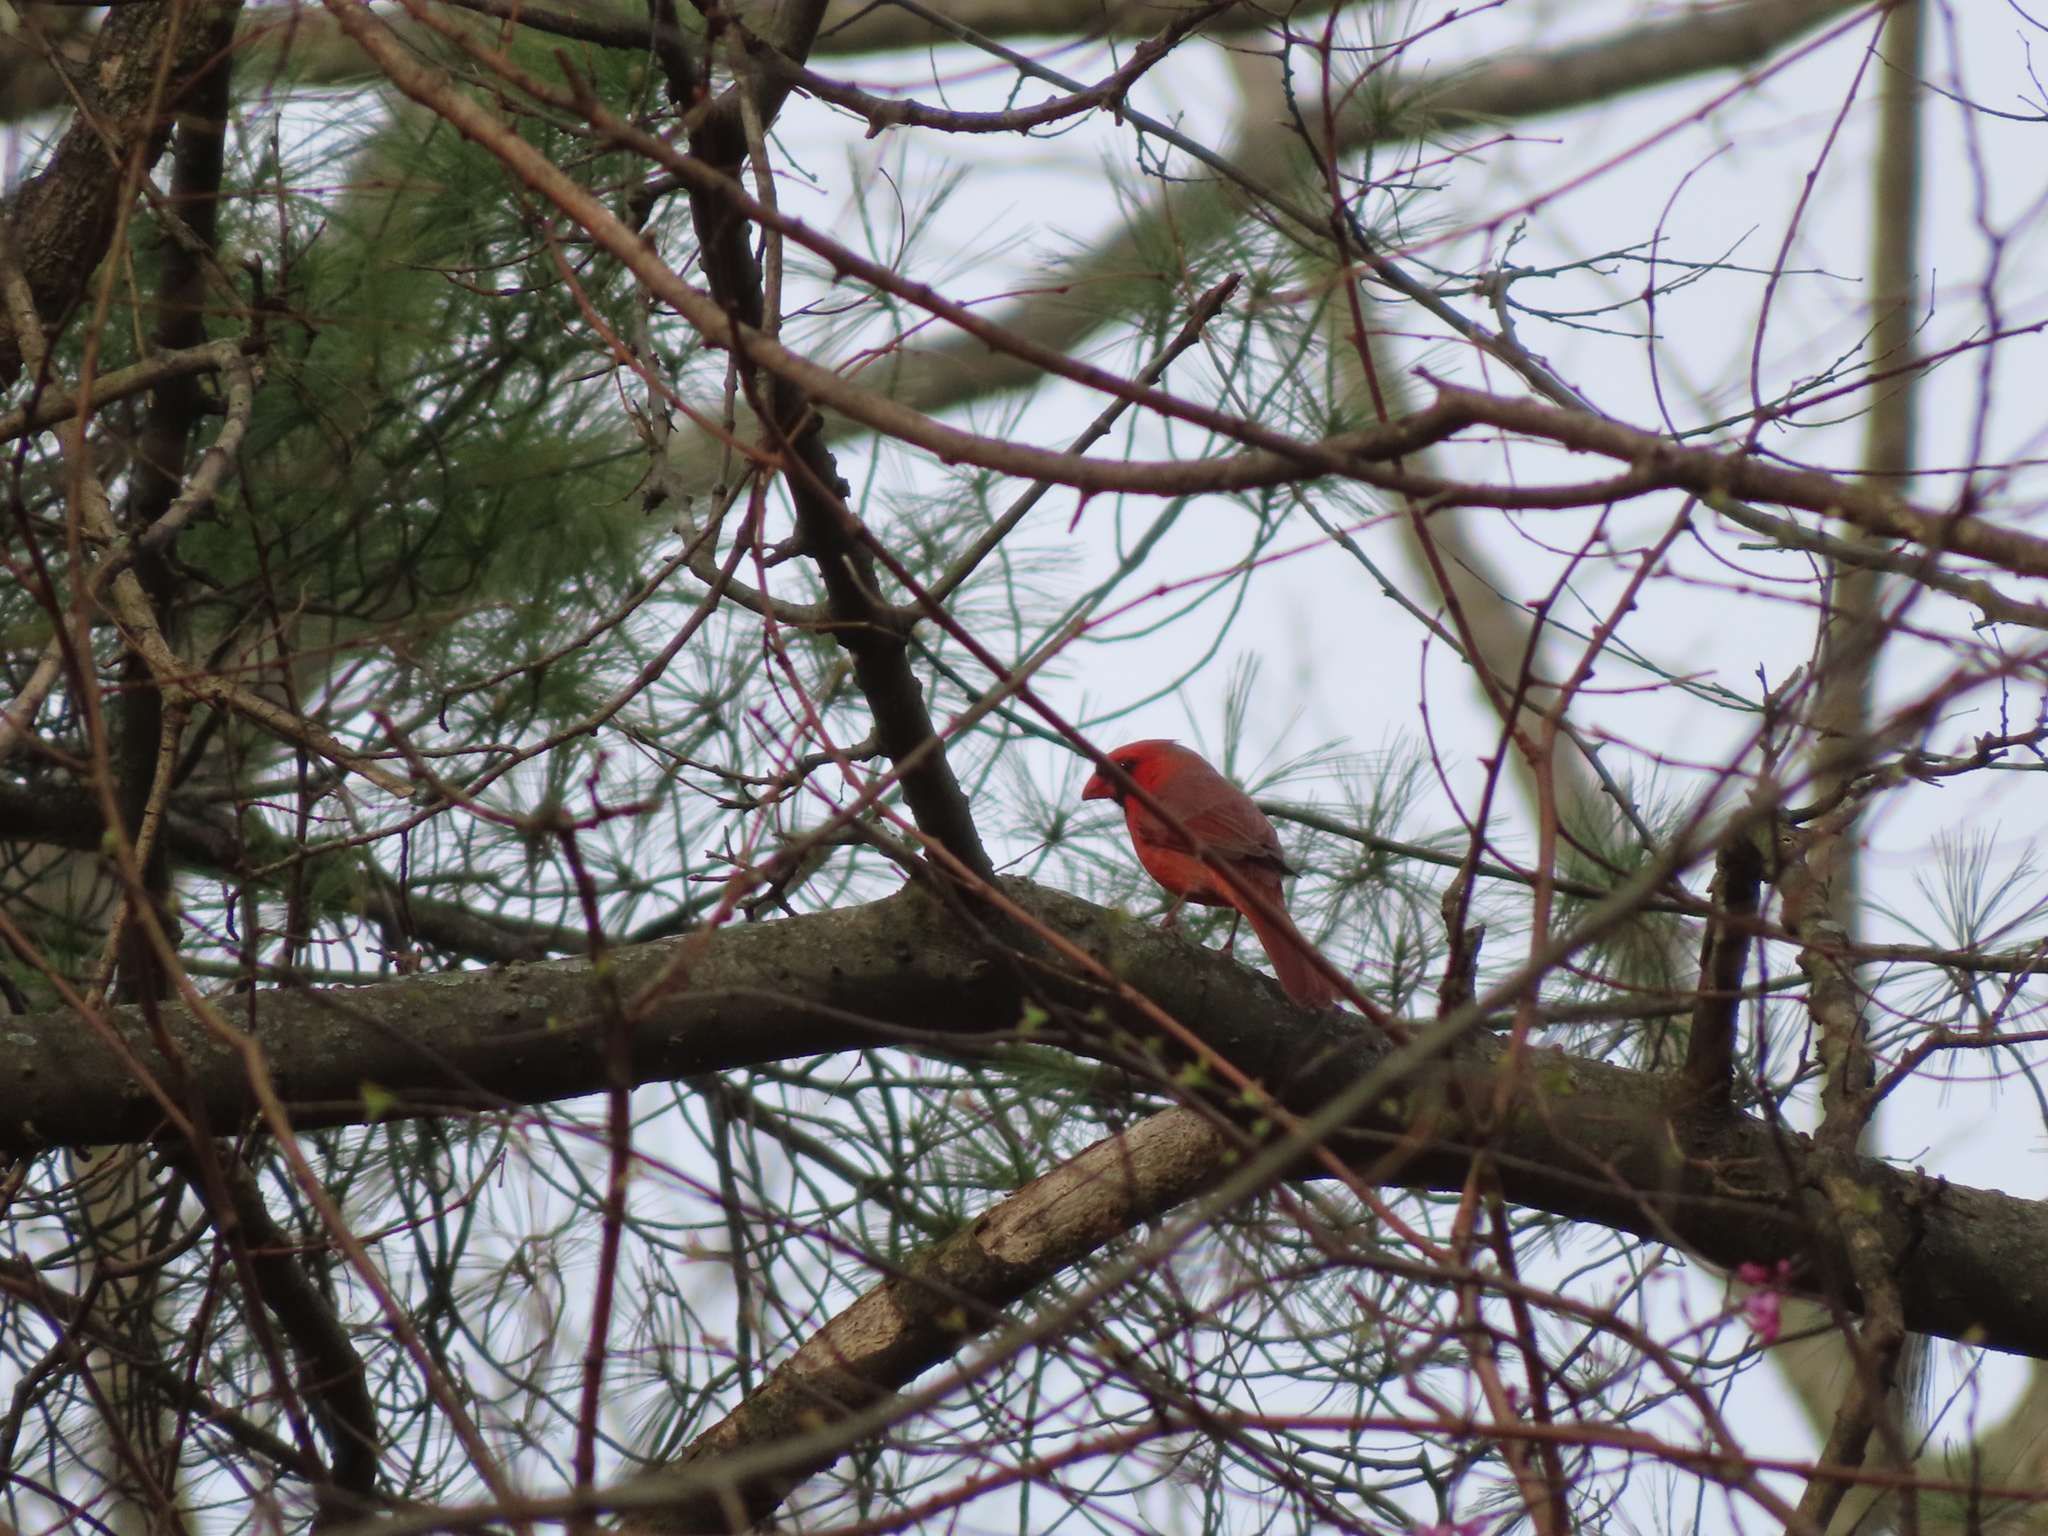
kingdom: Animalia
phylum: Chordata
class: Aves
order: Passeriformes
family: Cardinalidae
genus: Cardinalis
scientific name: Cardinalis cardinalis
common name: Northern cardinal
